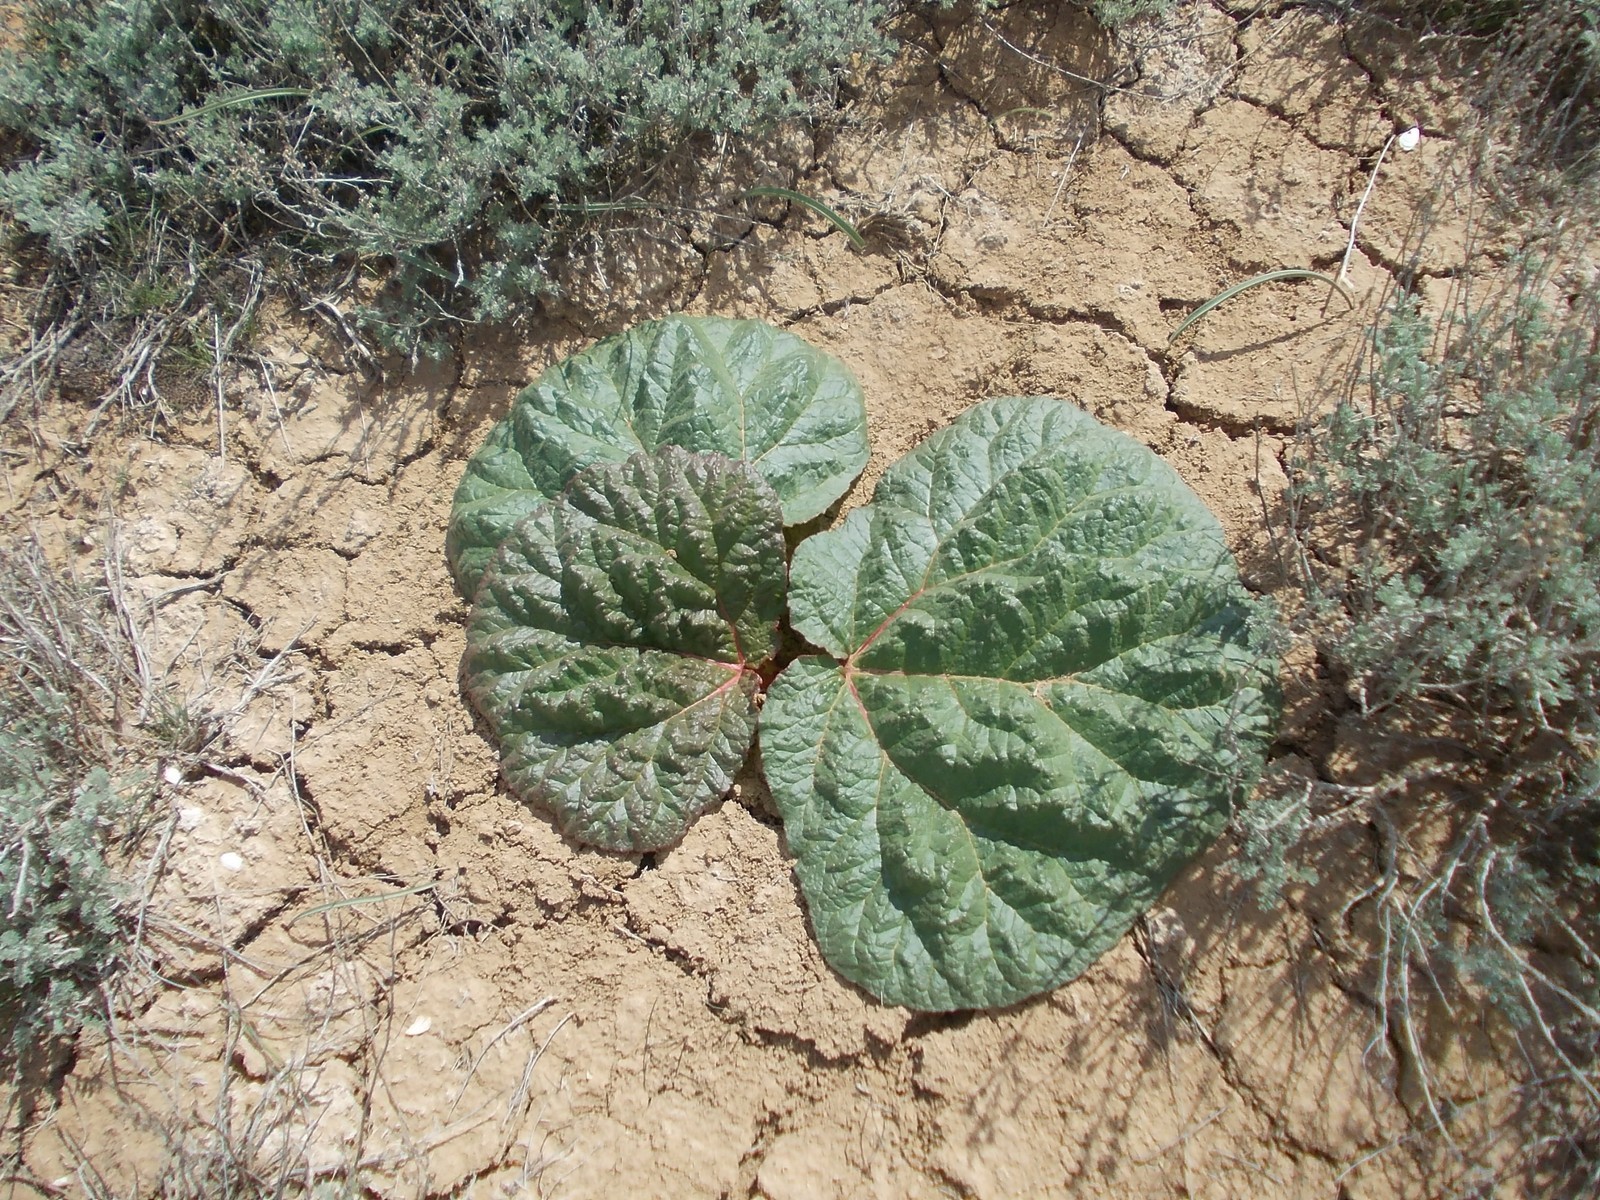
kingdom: Plantae
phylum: Tracheophyta
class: Magnoliopsida
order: Caryophyllales
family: Polygonaceae
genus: Rheum
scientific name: Rheum tataricum
